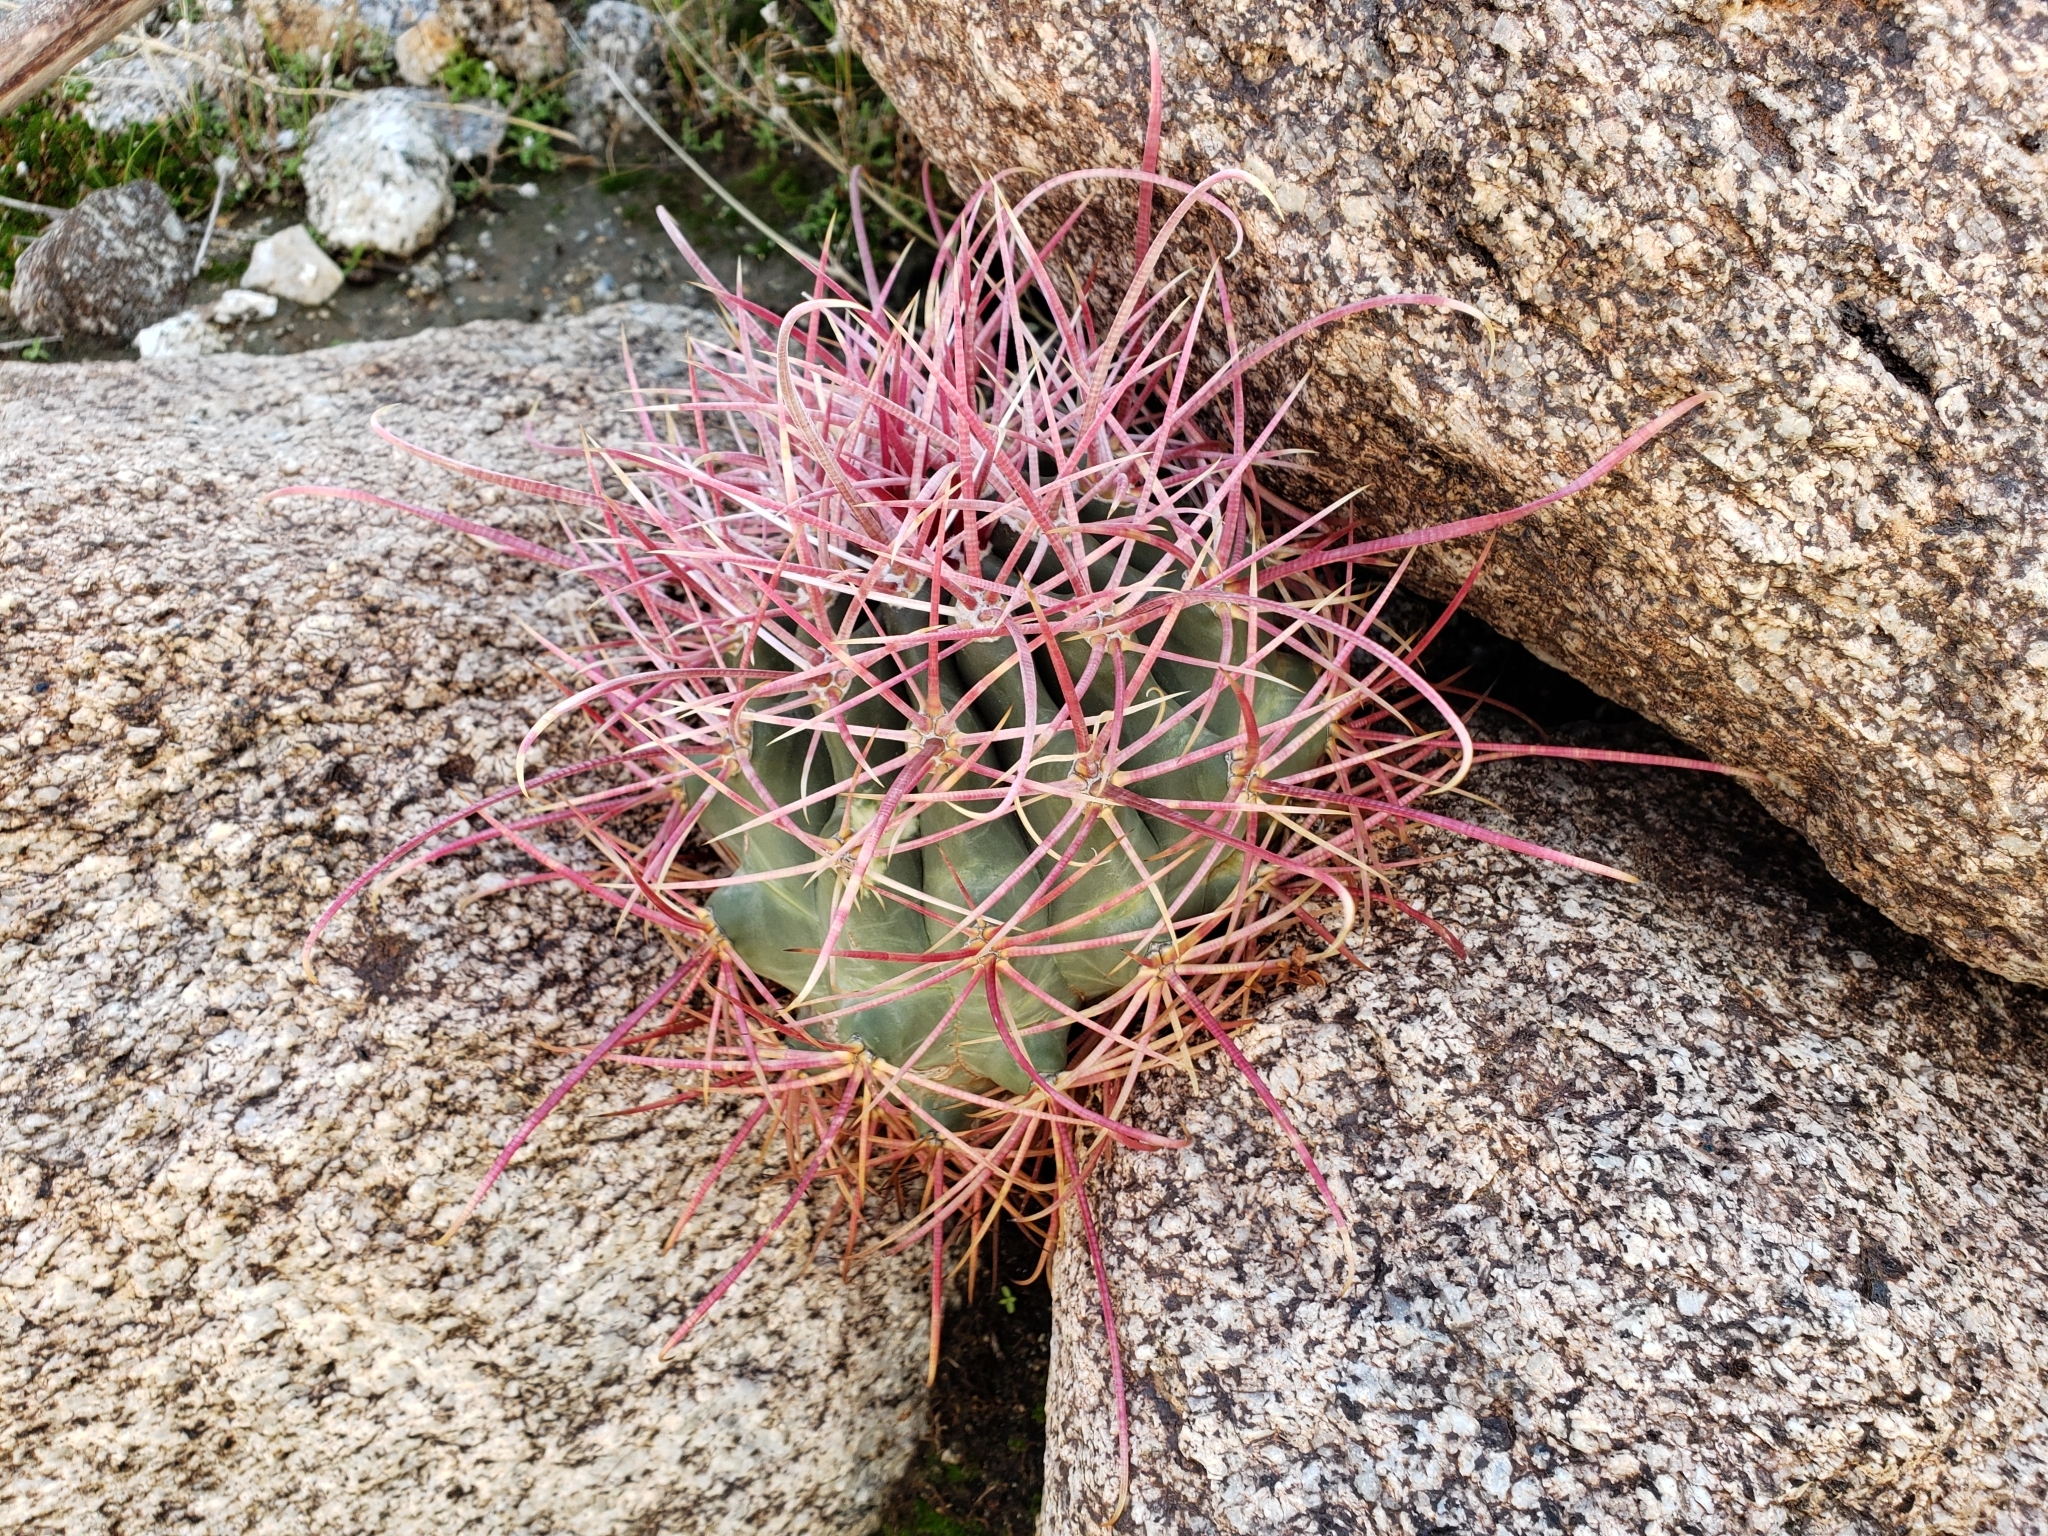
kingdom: Plantae
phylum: Tracheophyta
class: Magnoliopsida
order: Caryophyllales
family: Cactaceae
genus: Ferocactus
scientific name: Ferocactus cylindraceus
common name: California barrel cactus
